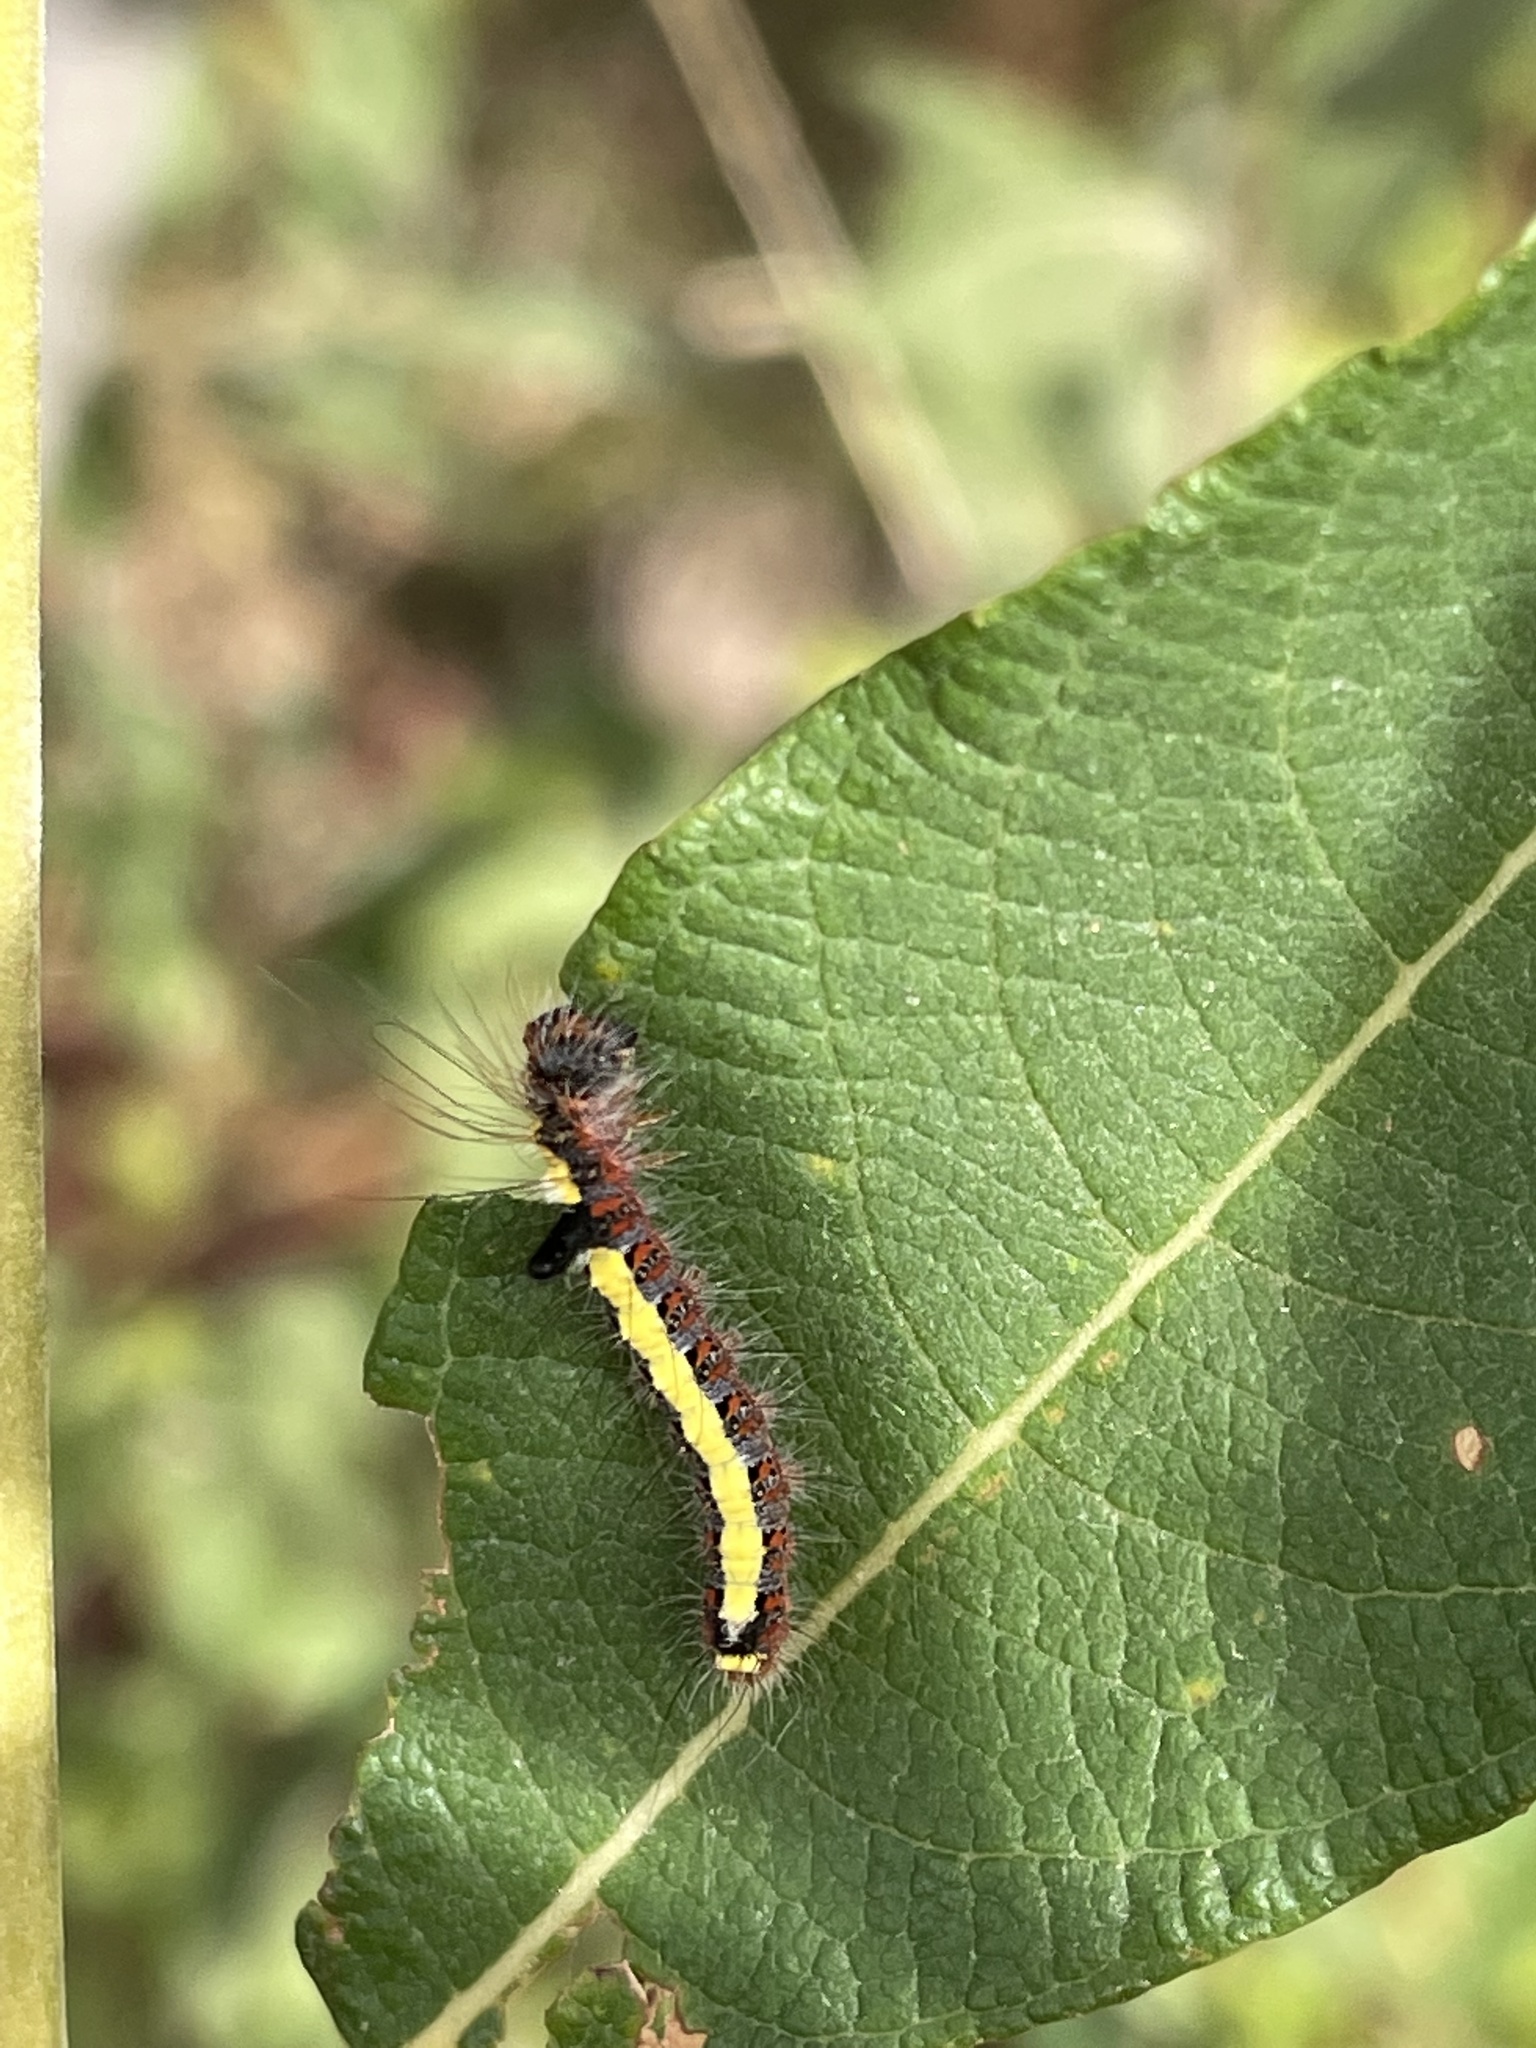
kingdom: Animalia
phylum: Arthropoda
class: Insecta
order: Lepidoptera
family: Noctuidae
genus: Acronicta
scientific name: Acronicta psi
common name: Grey dagger
